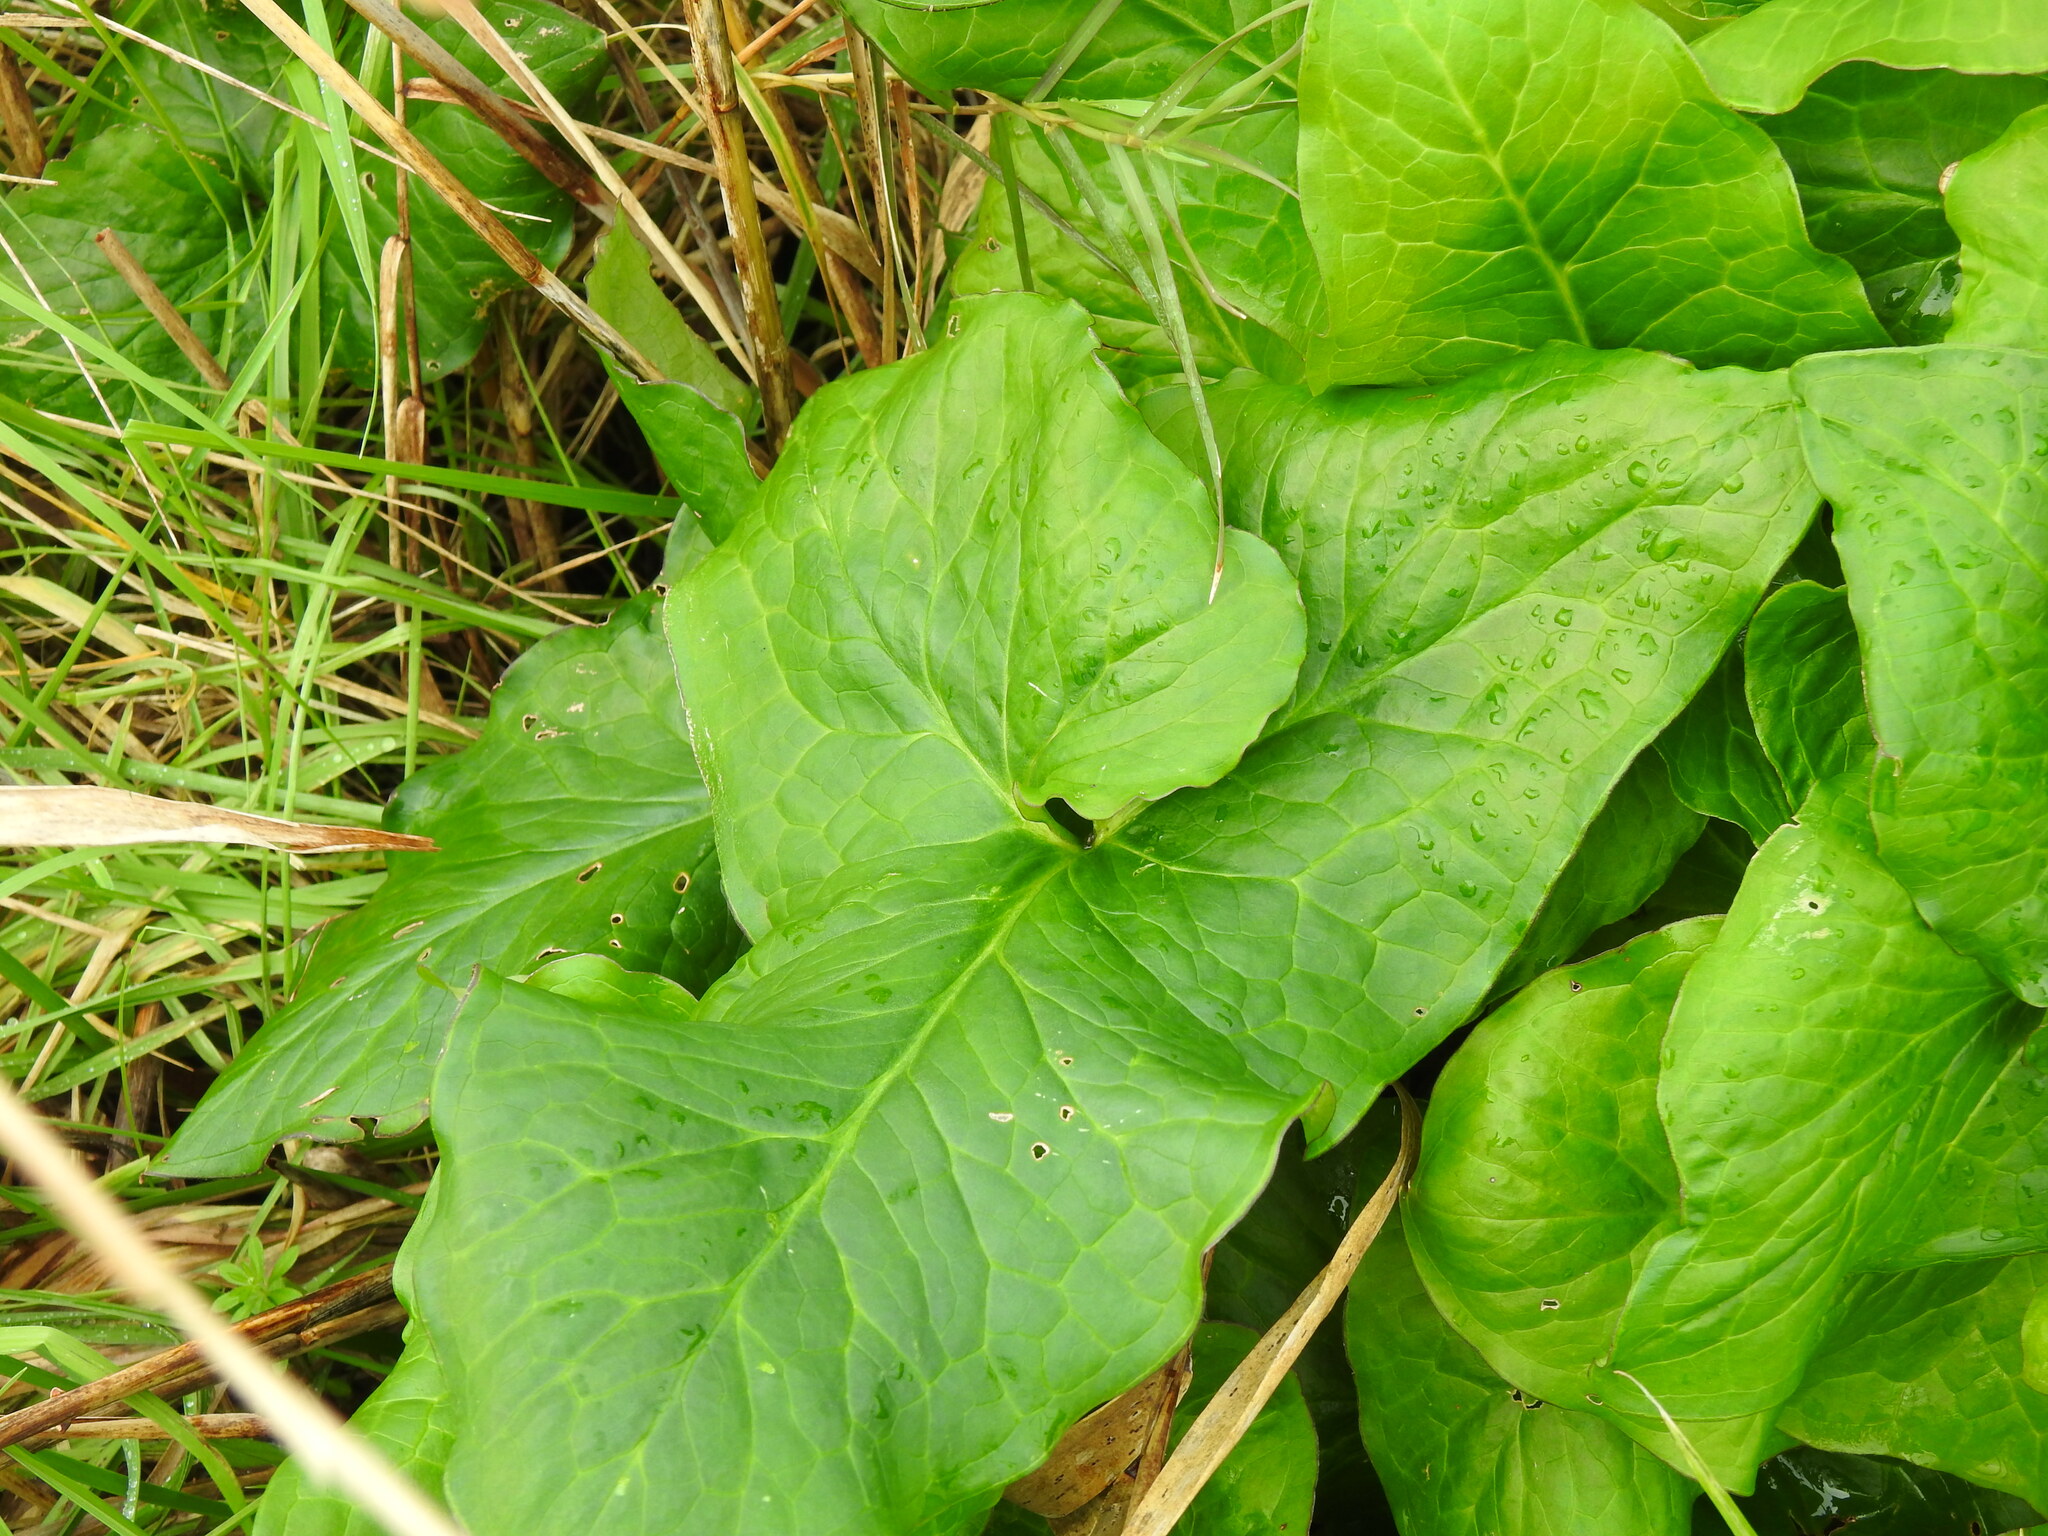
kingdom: Plantae
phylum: Tracheophyta
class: Liliopsida
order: Alismatales
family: Araceae
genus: Arum
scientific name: Arum italicum
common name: Italian lords-and-ladies
